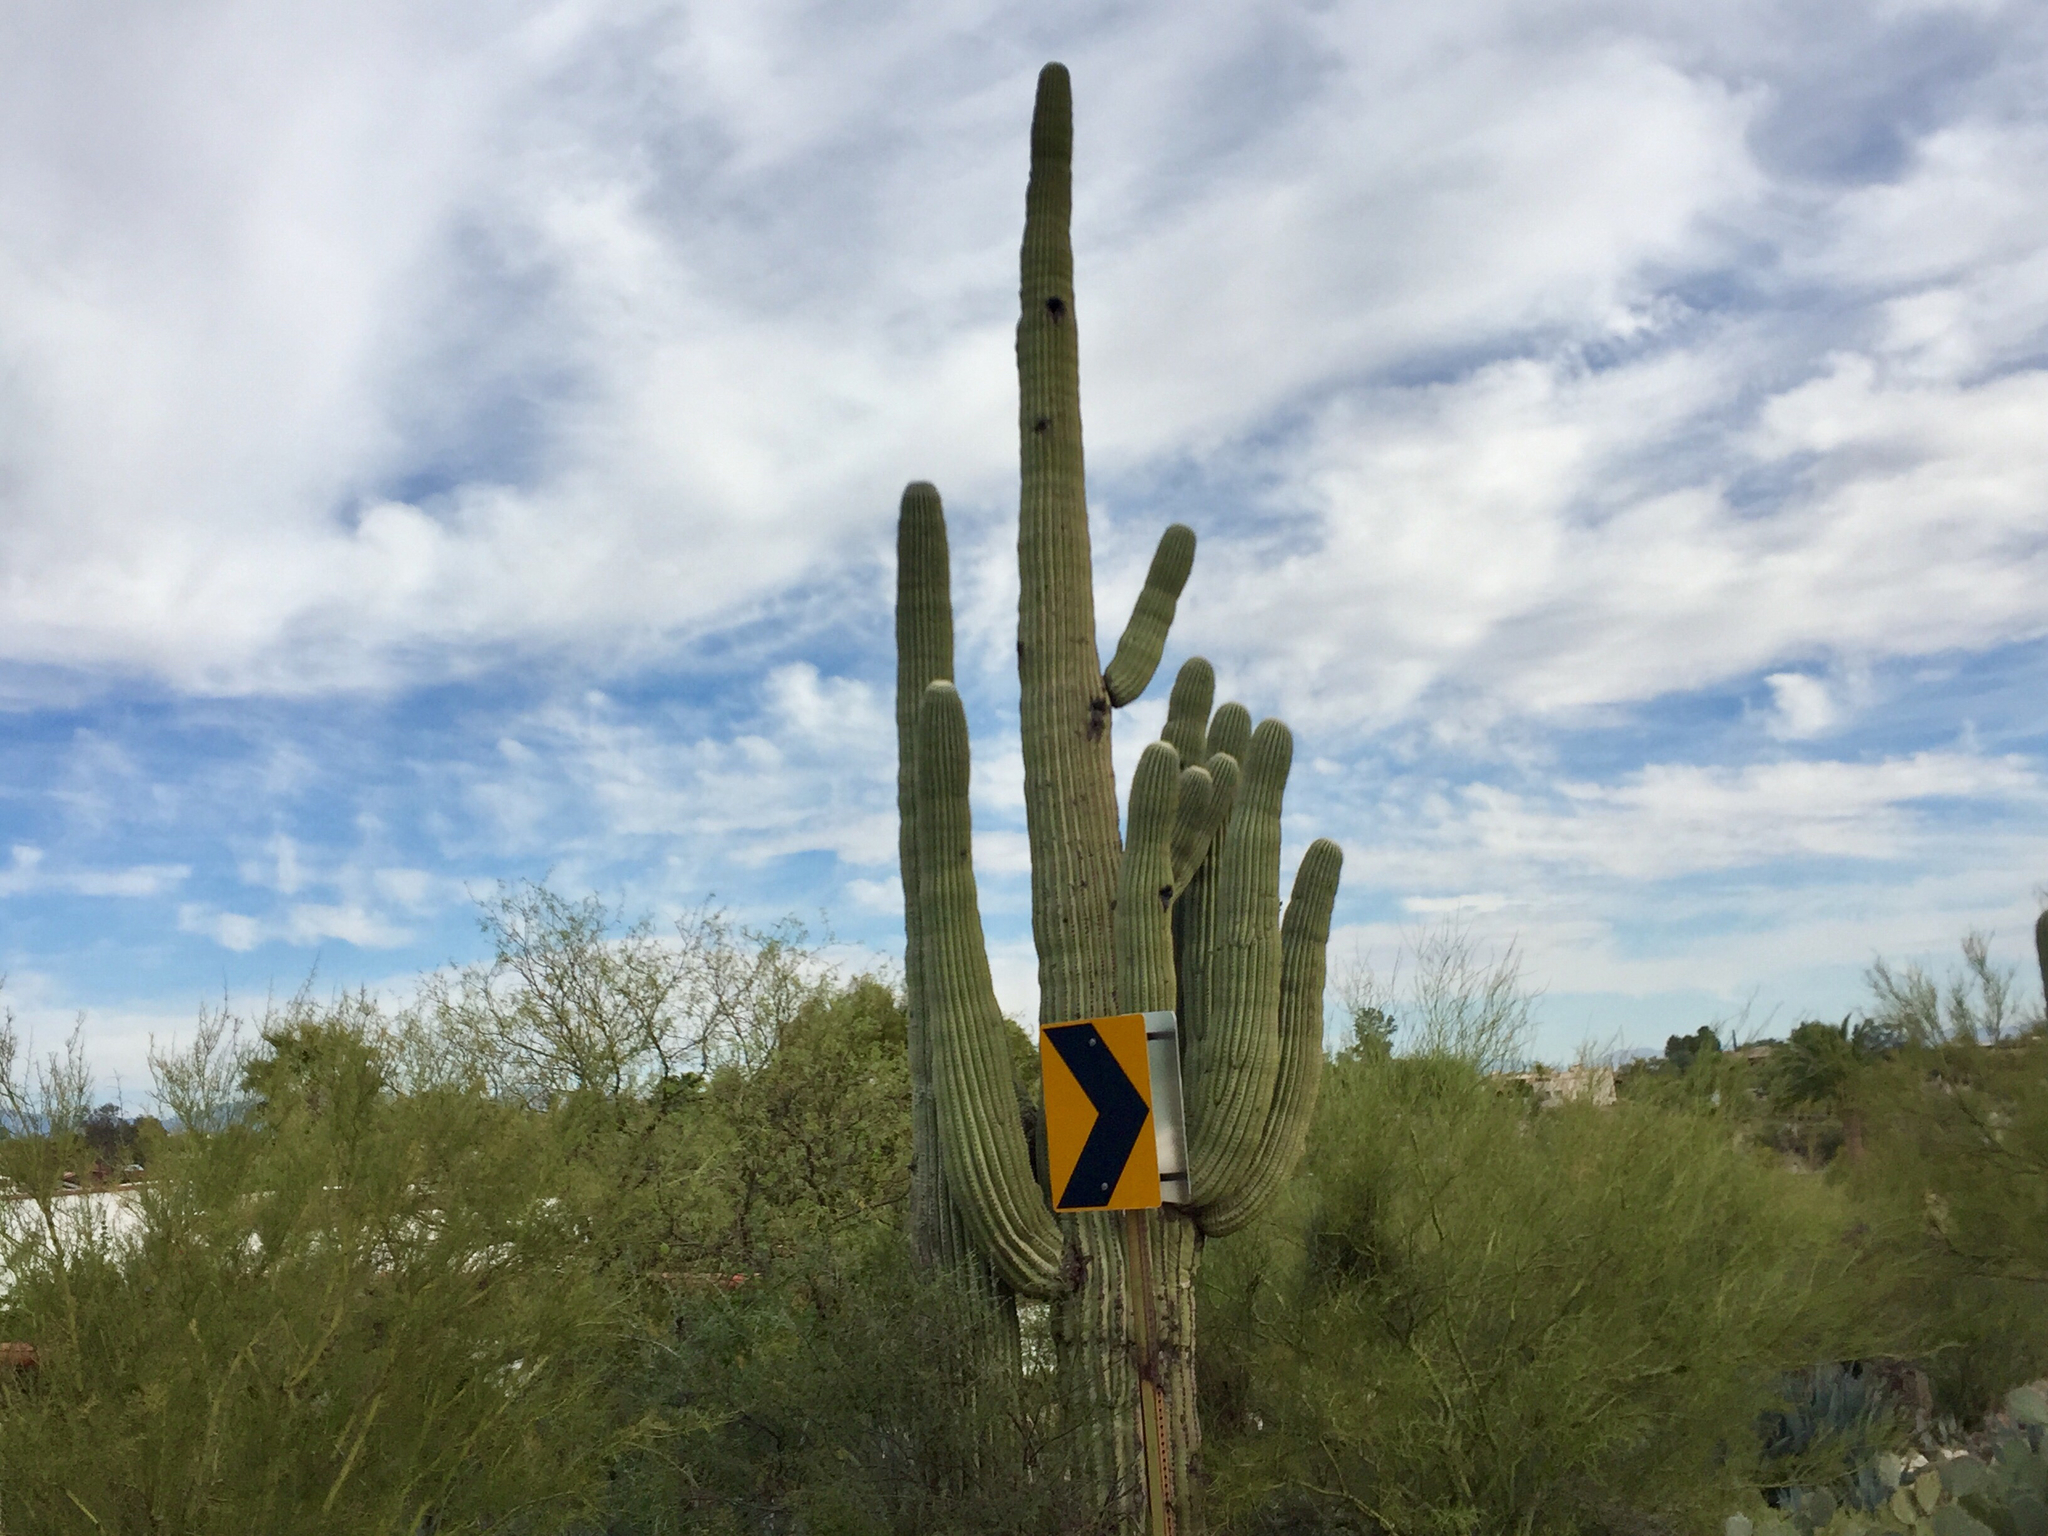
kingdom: Plantae
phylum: Tracheophyta
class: Magnoliopsida
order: Caryophyllales
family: Cactaceae
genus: Carnegiea
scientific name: Carnegiea gigantea
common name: Saguaro
